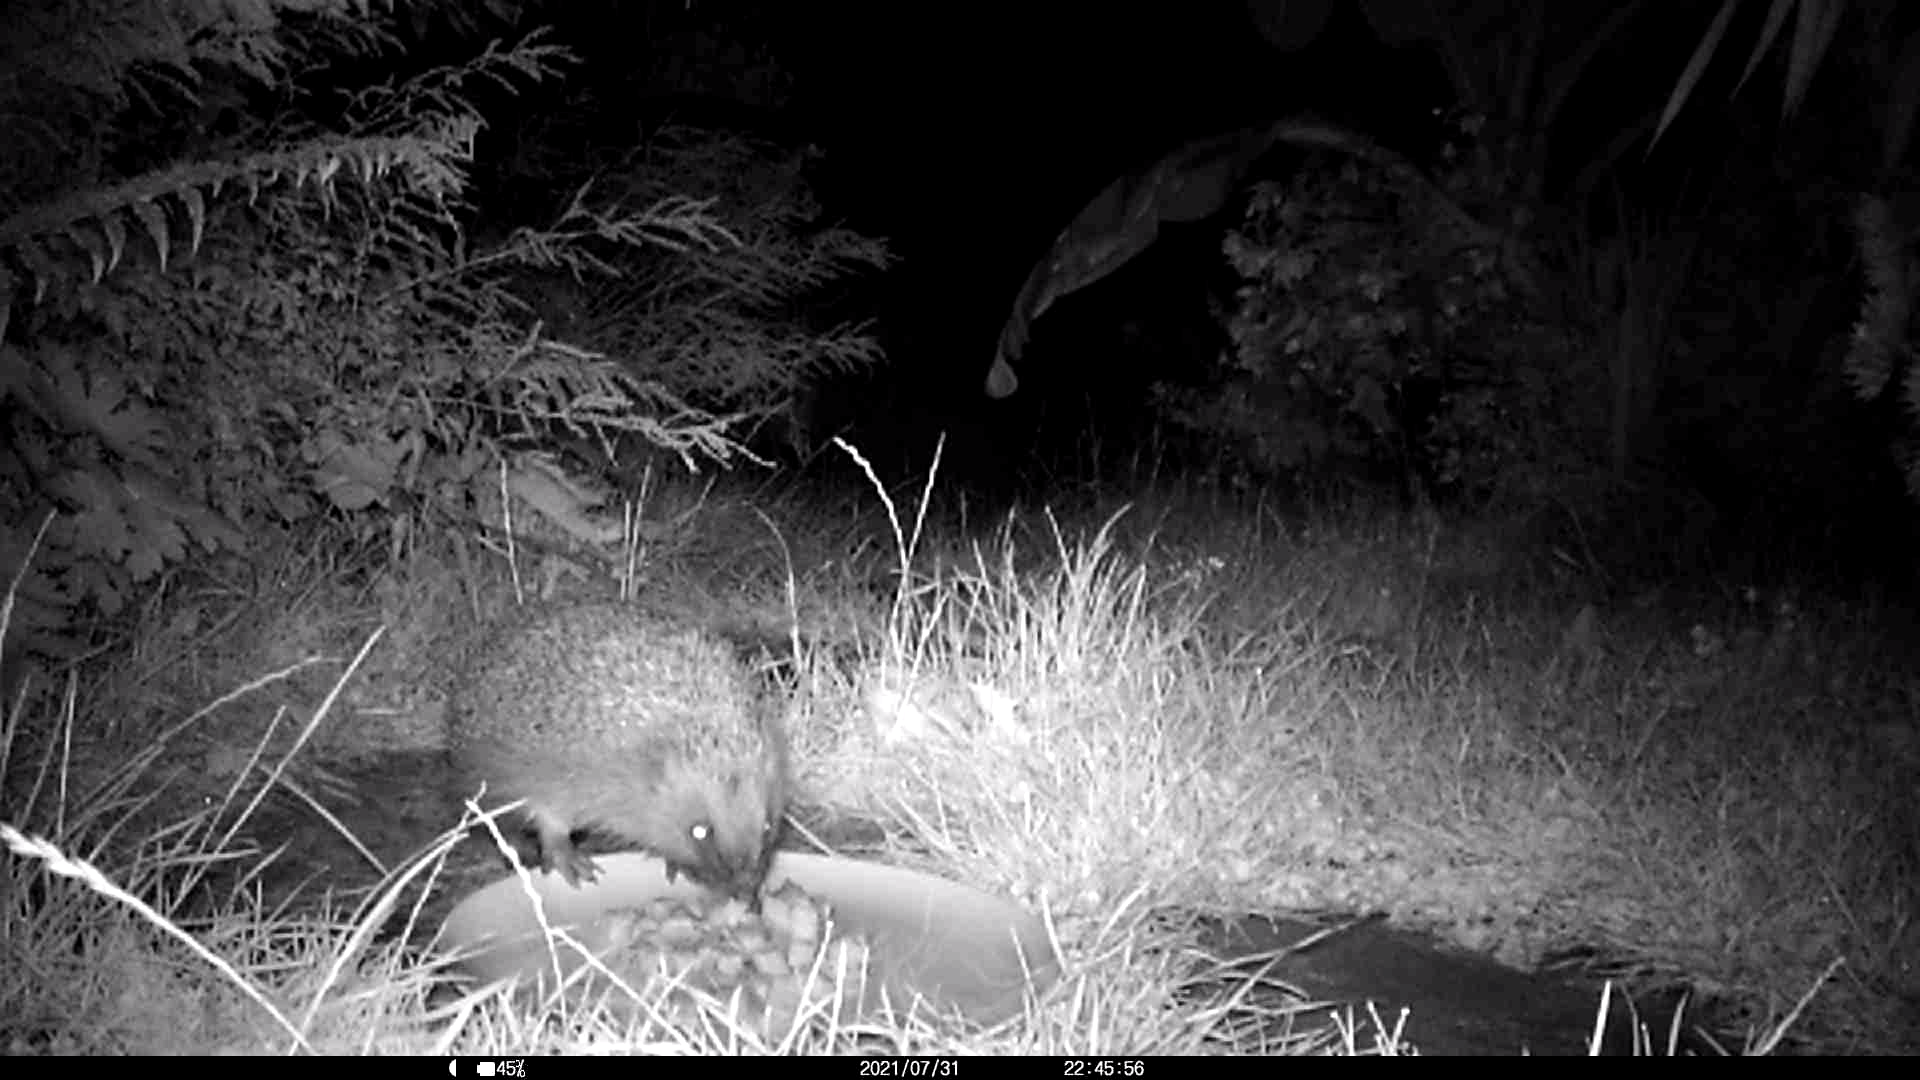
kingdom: Animalia
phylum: Chordata
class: Mammalia
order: Erinaceomorpha
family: Erinaceidae
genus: Erinaceus
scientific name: Erinaceus europaeus
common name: West european hedgehog
